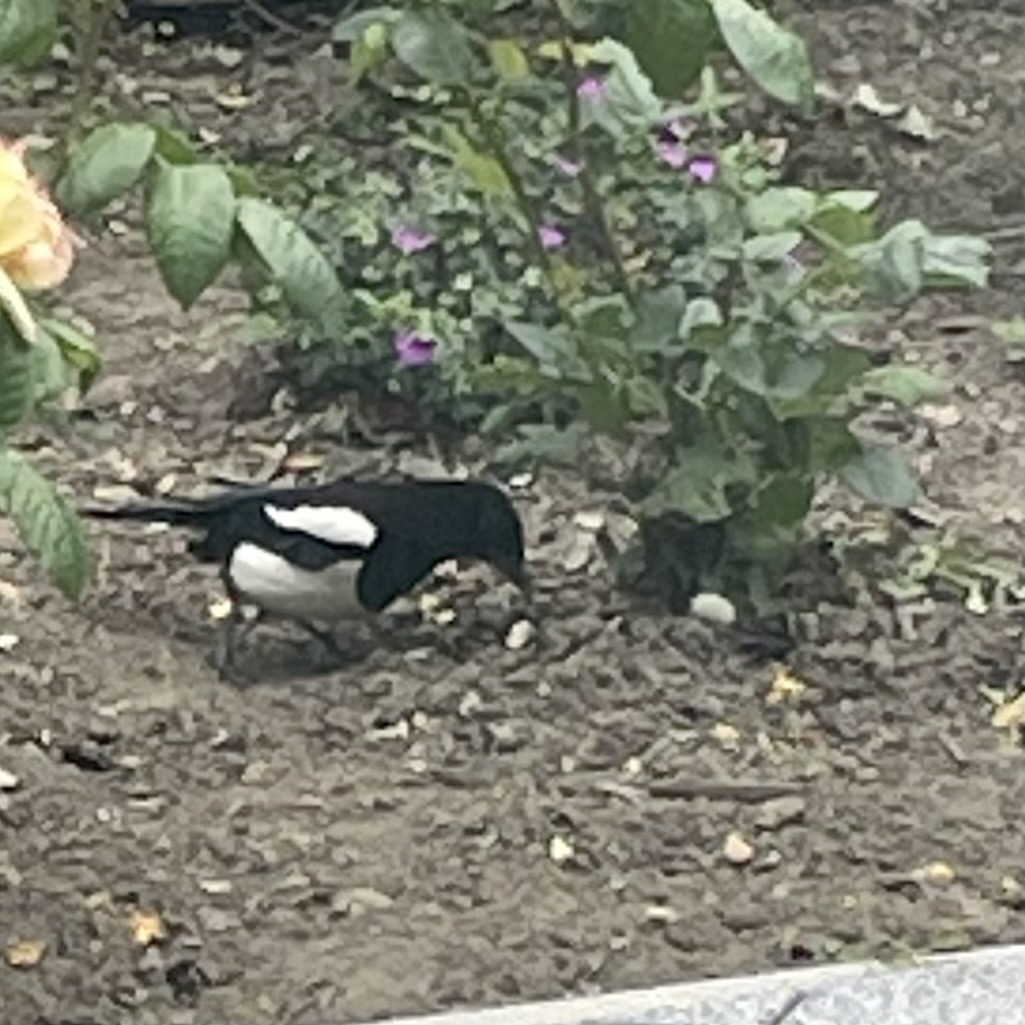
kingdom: Animalia
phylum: Chordata
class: Aves
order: Passeriformes
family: Corvidae
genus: Pica
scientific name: Pica pica
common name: Eurasian magpie
